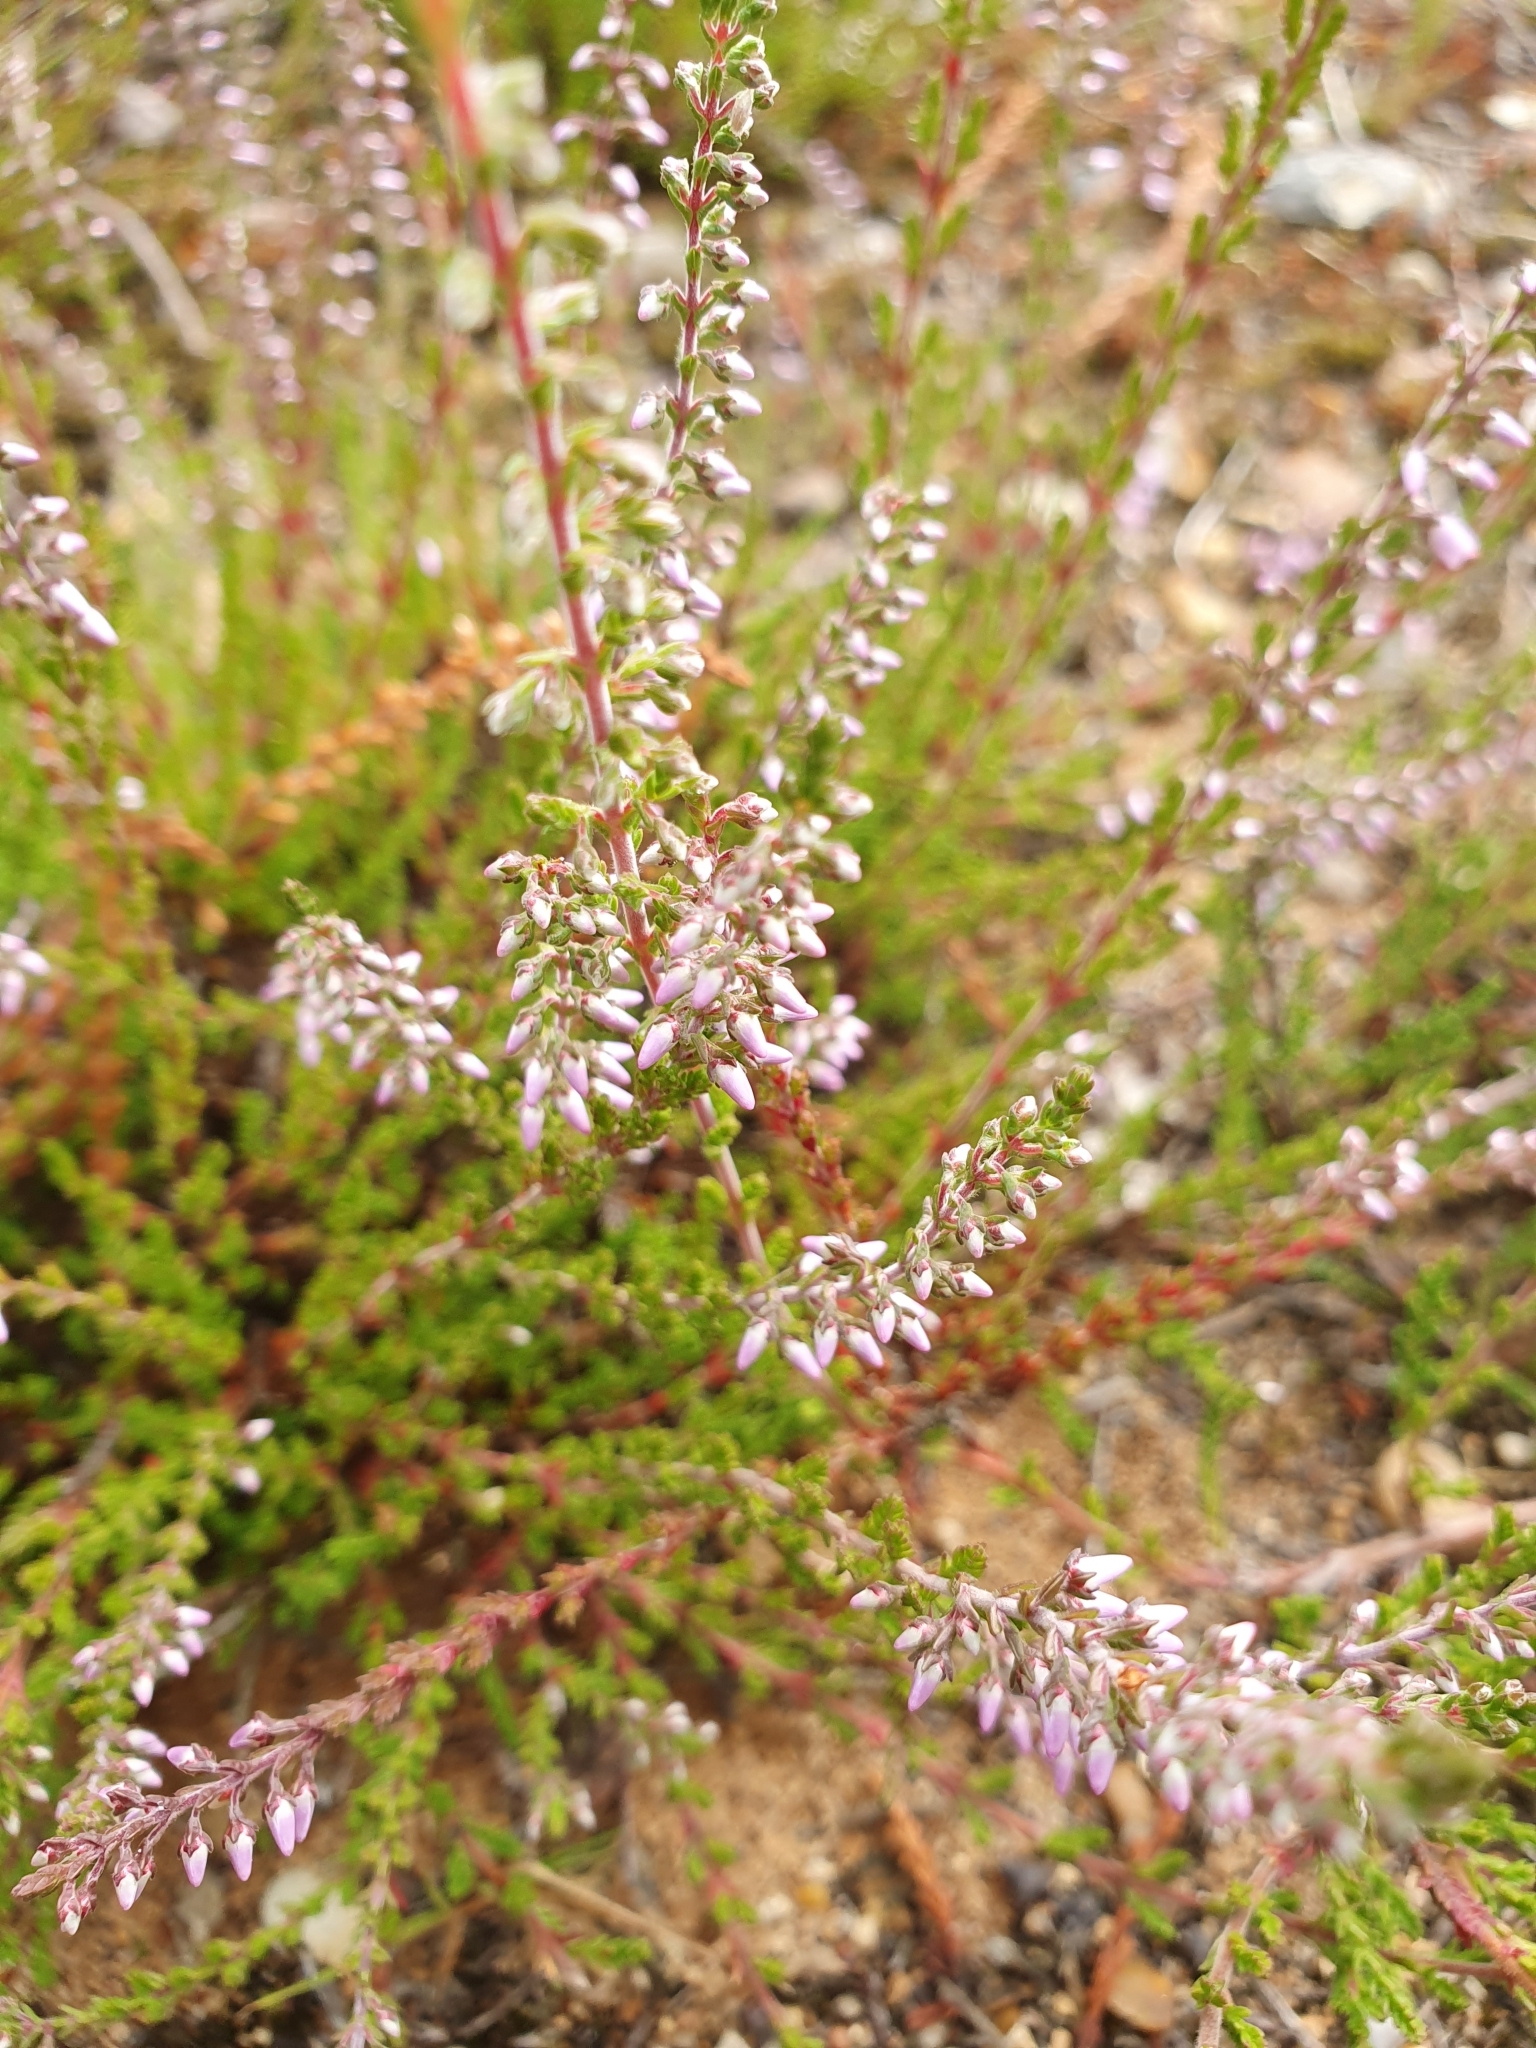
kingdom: Plantae
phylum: Tracheophyta
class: Magnoliopsida
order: Ericales
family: Ericaceae
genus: Calluna
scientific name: Calluna vulgaris
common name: Heather
